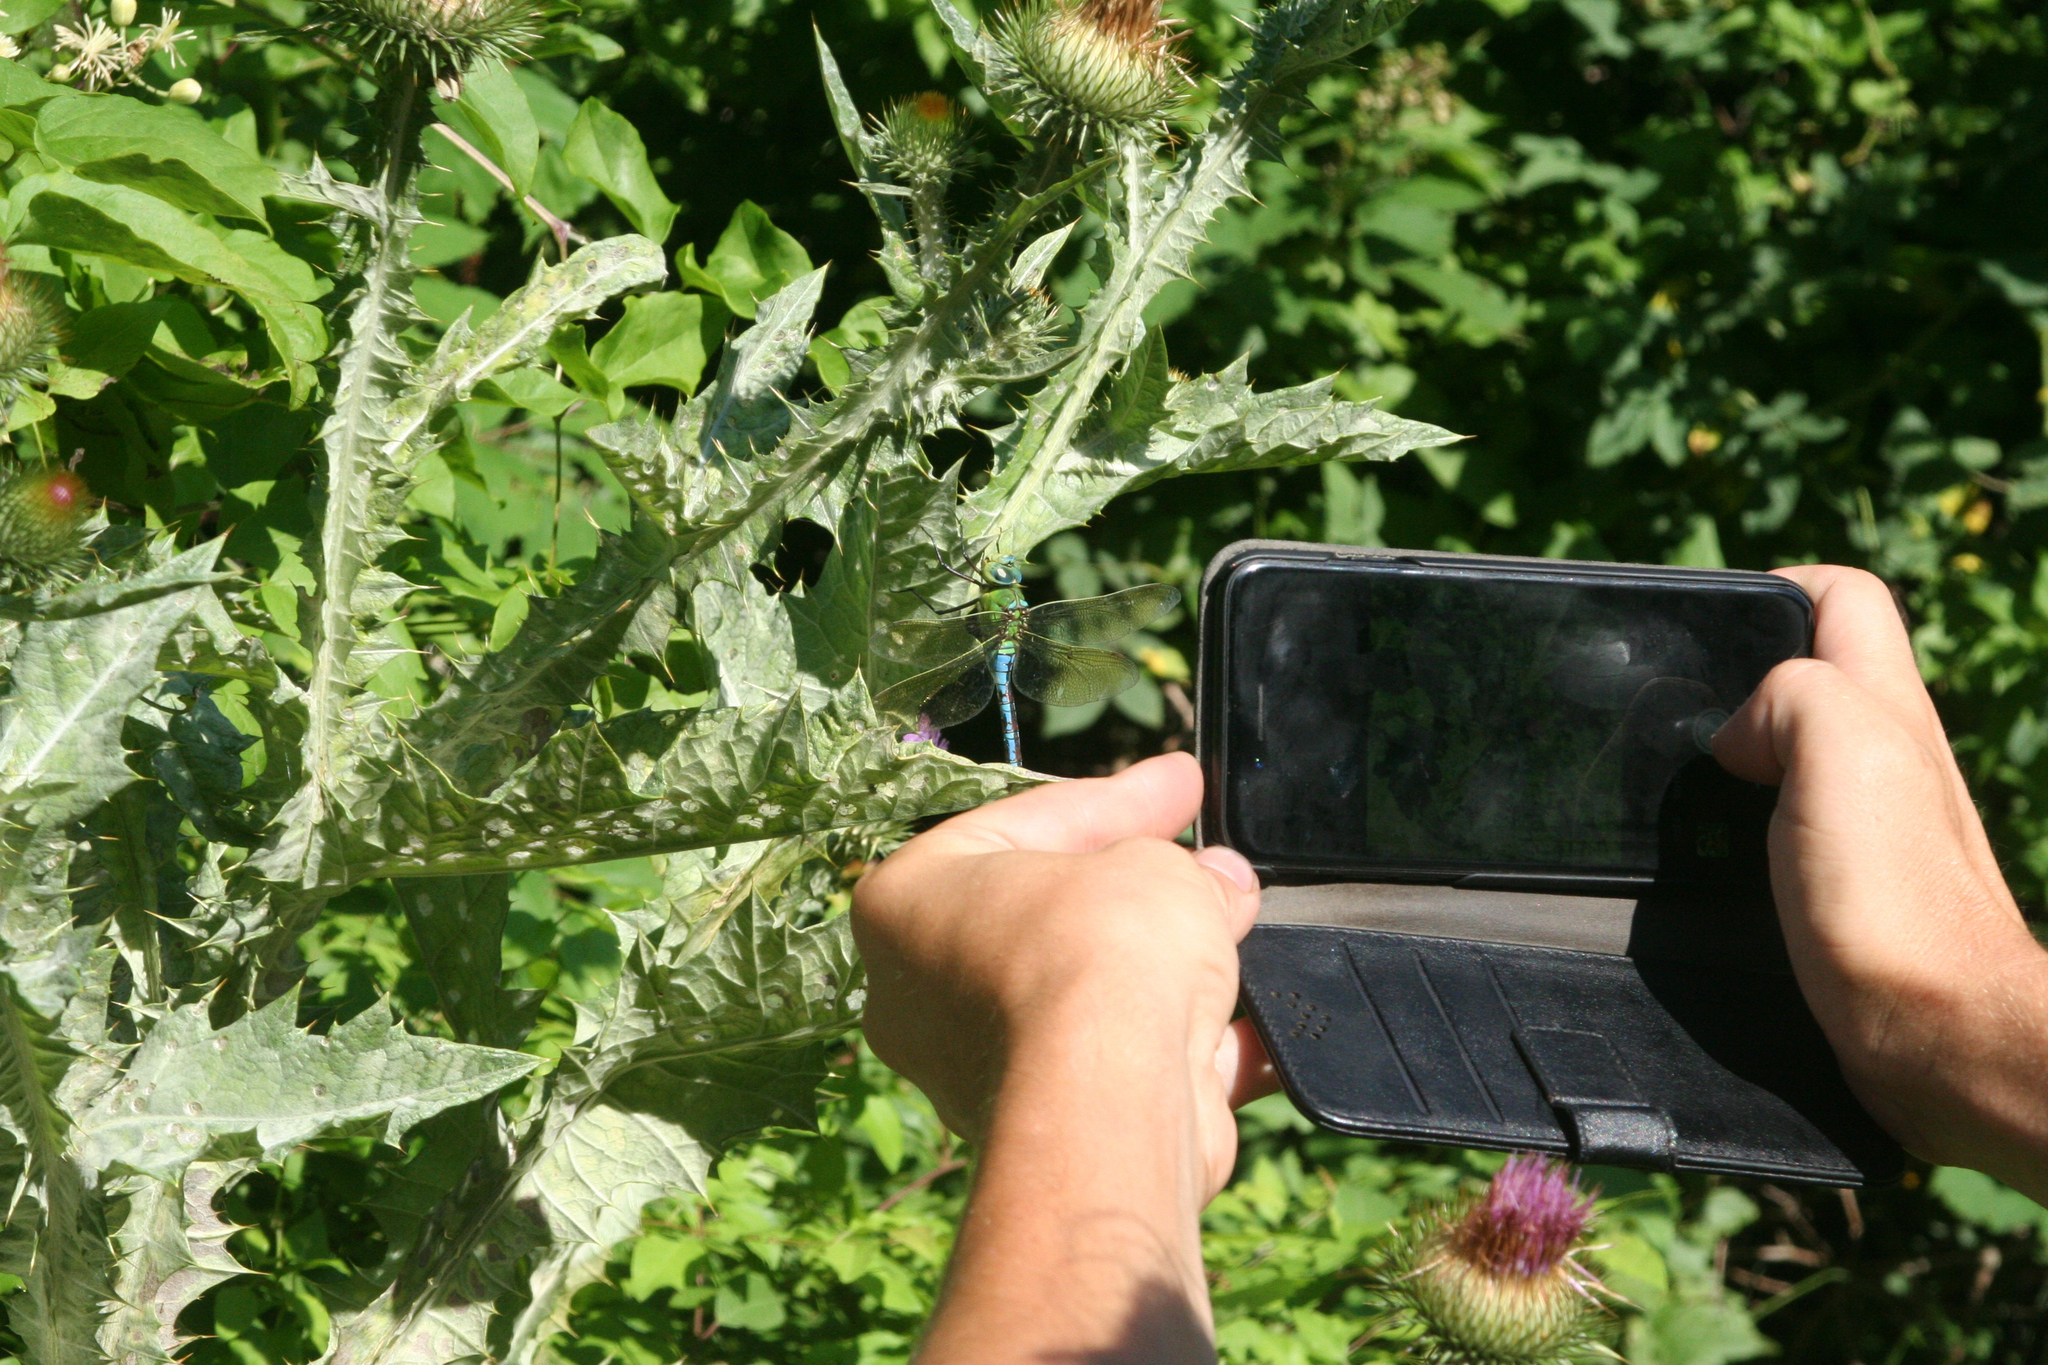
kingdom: Plantae
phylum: Tracheophyta
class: Magnoliopsida
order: Asterales
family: Asteraceae
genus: Onopordum
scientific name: Onopordum acanthium
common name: Scotch thistle
